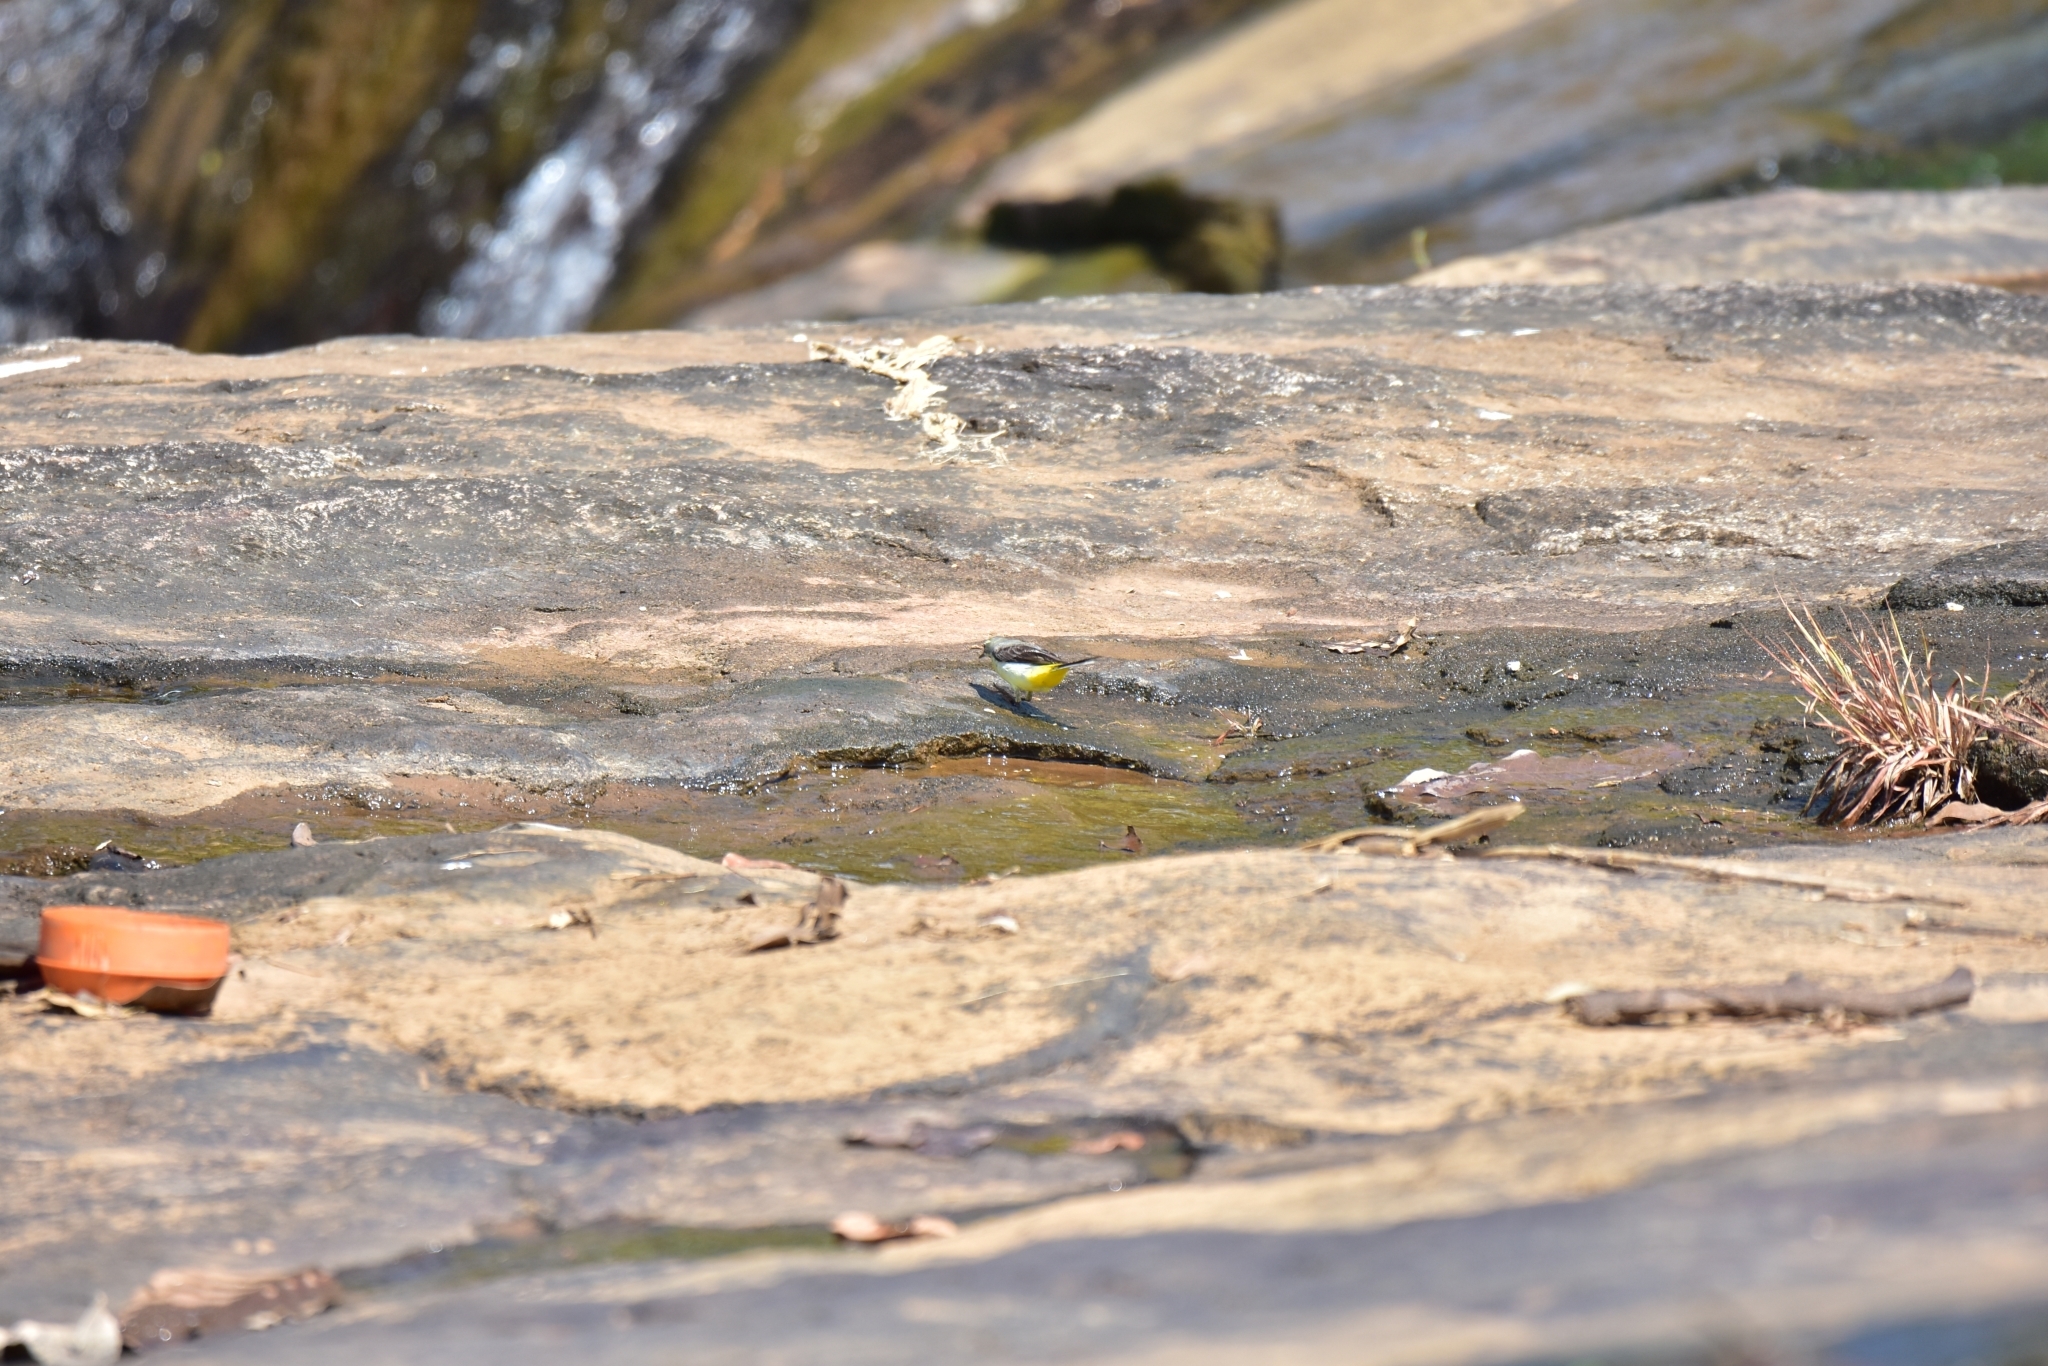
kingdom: Animalia
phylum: Chordata
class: Aves
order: Passeriformes
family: Motacillidae
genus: Motacilla
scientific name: Motacilla cinerea
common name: Grey wagtail
